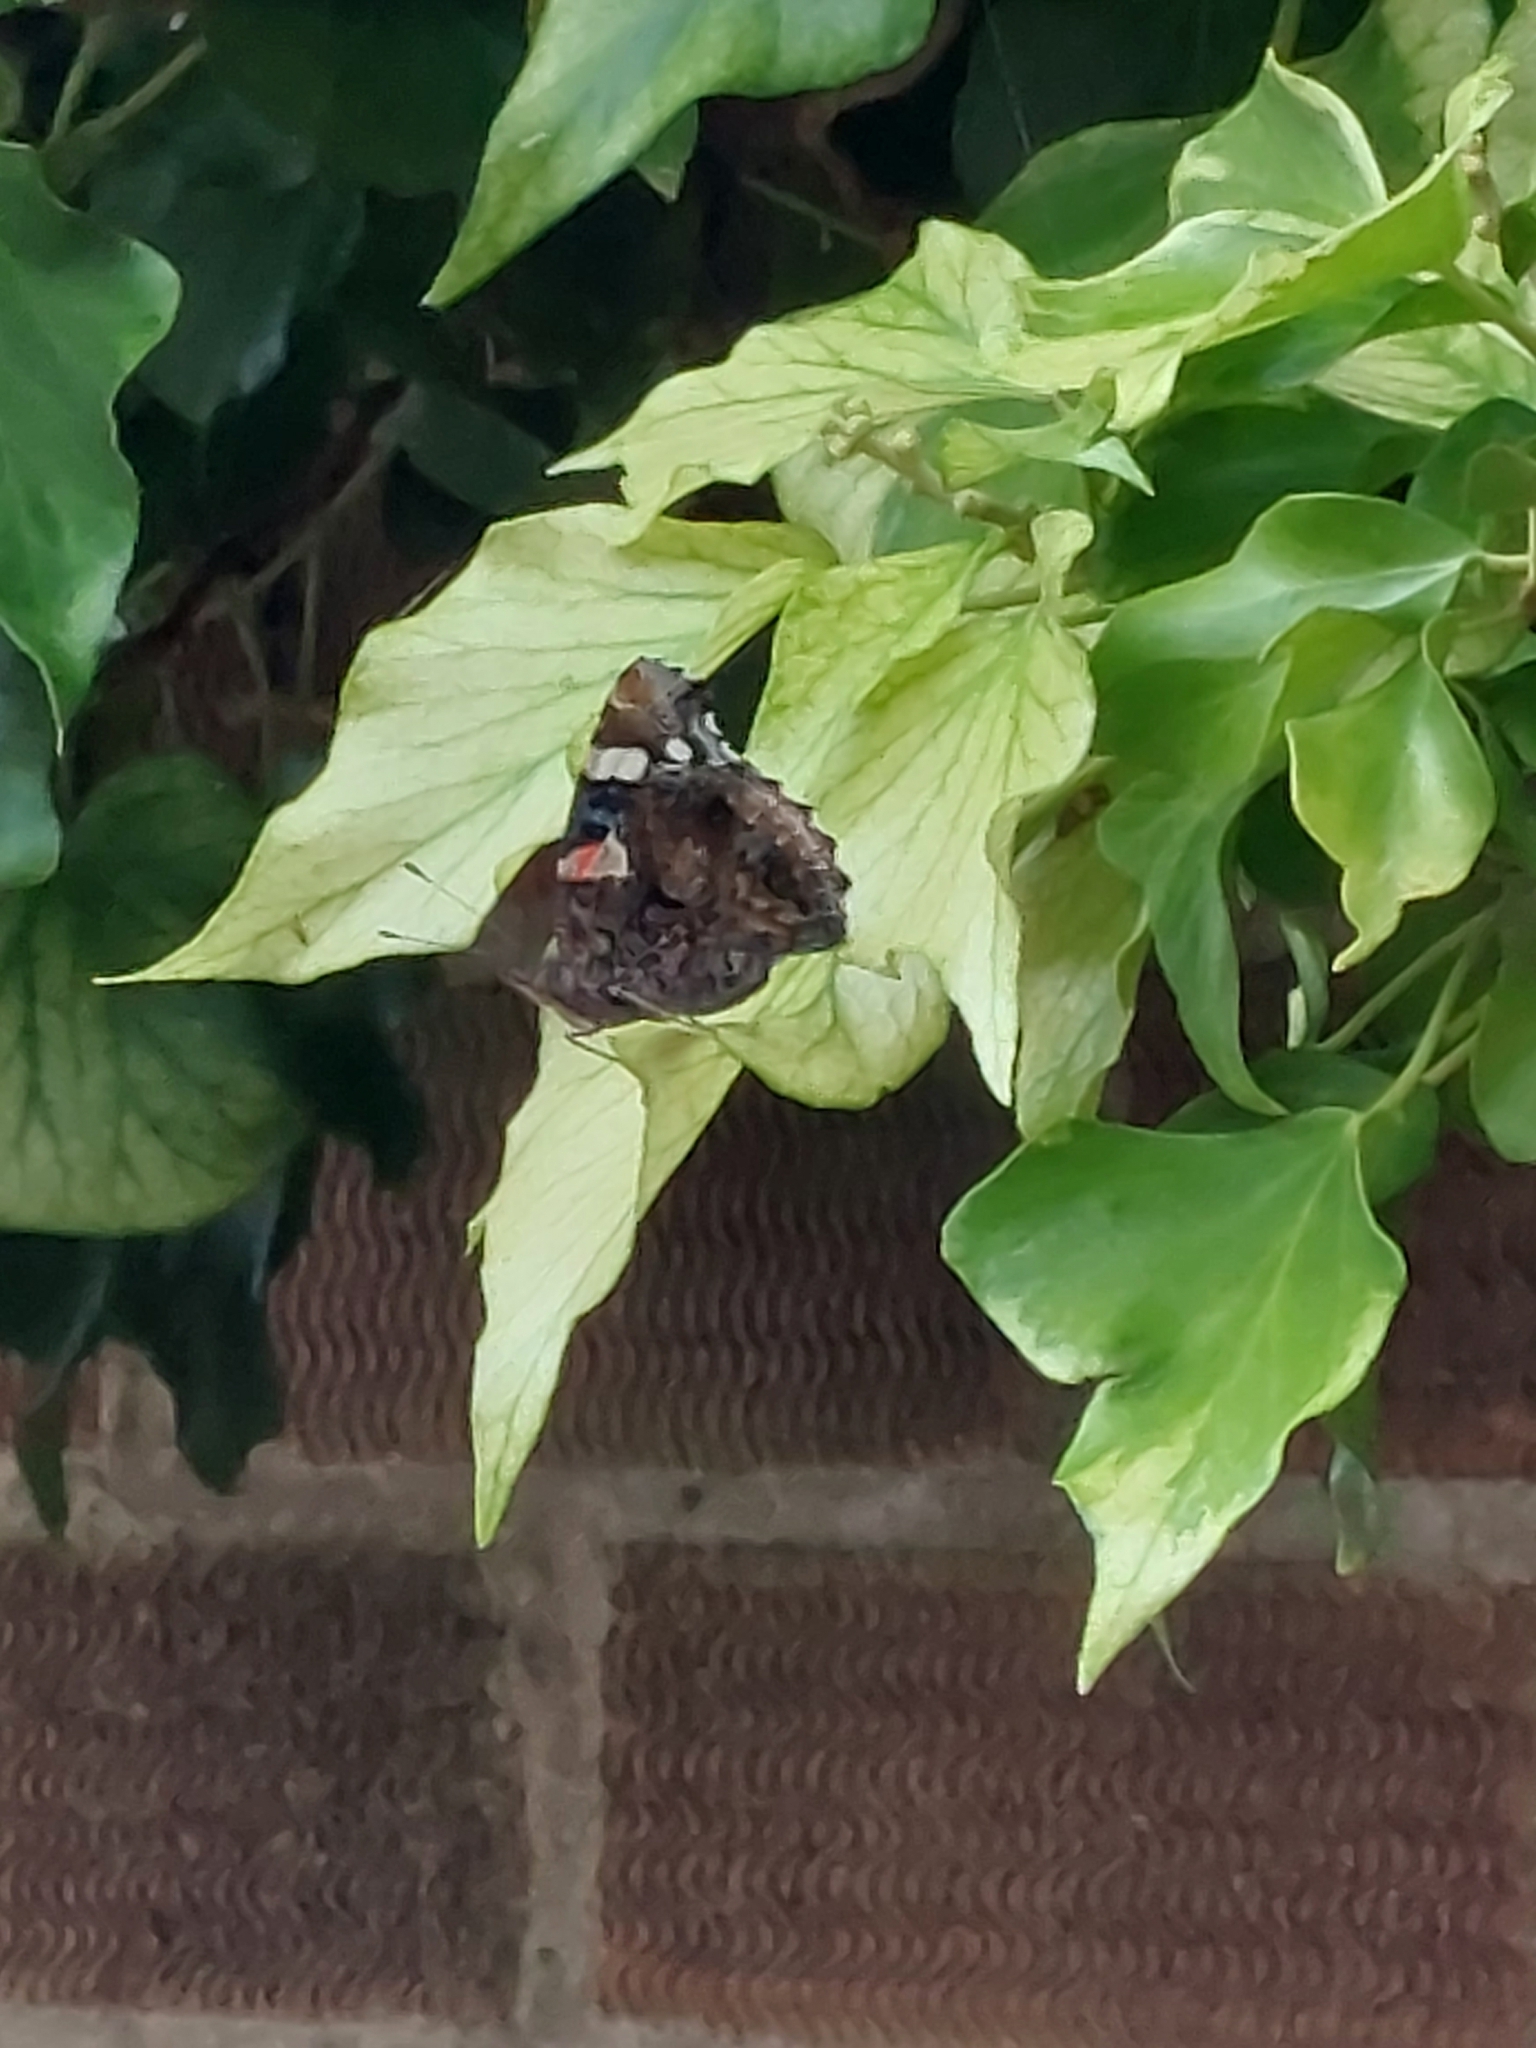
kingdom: Animalia
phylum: Arthropoda
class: Insecta
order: Lepidoptera
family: Nymphalidae
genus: Vanessa
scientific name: Vanessa atalanta
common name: Red admiral
